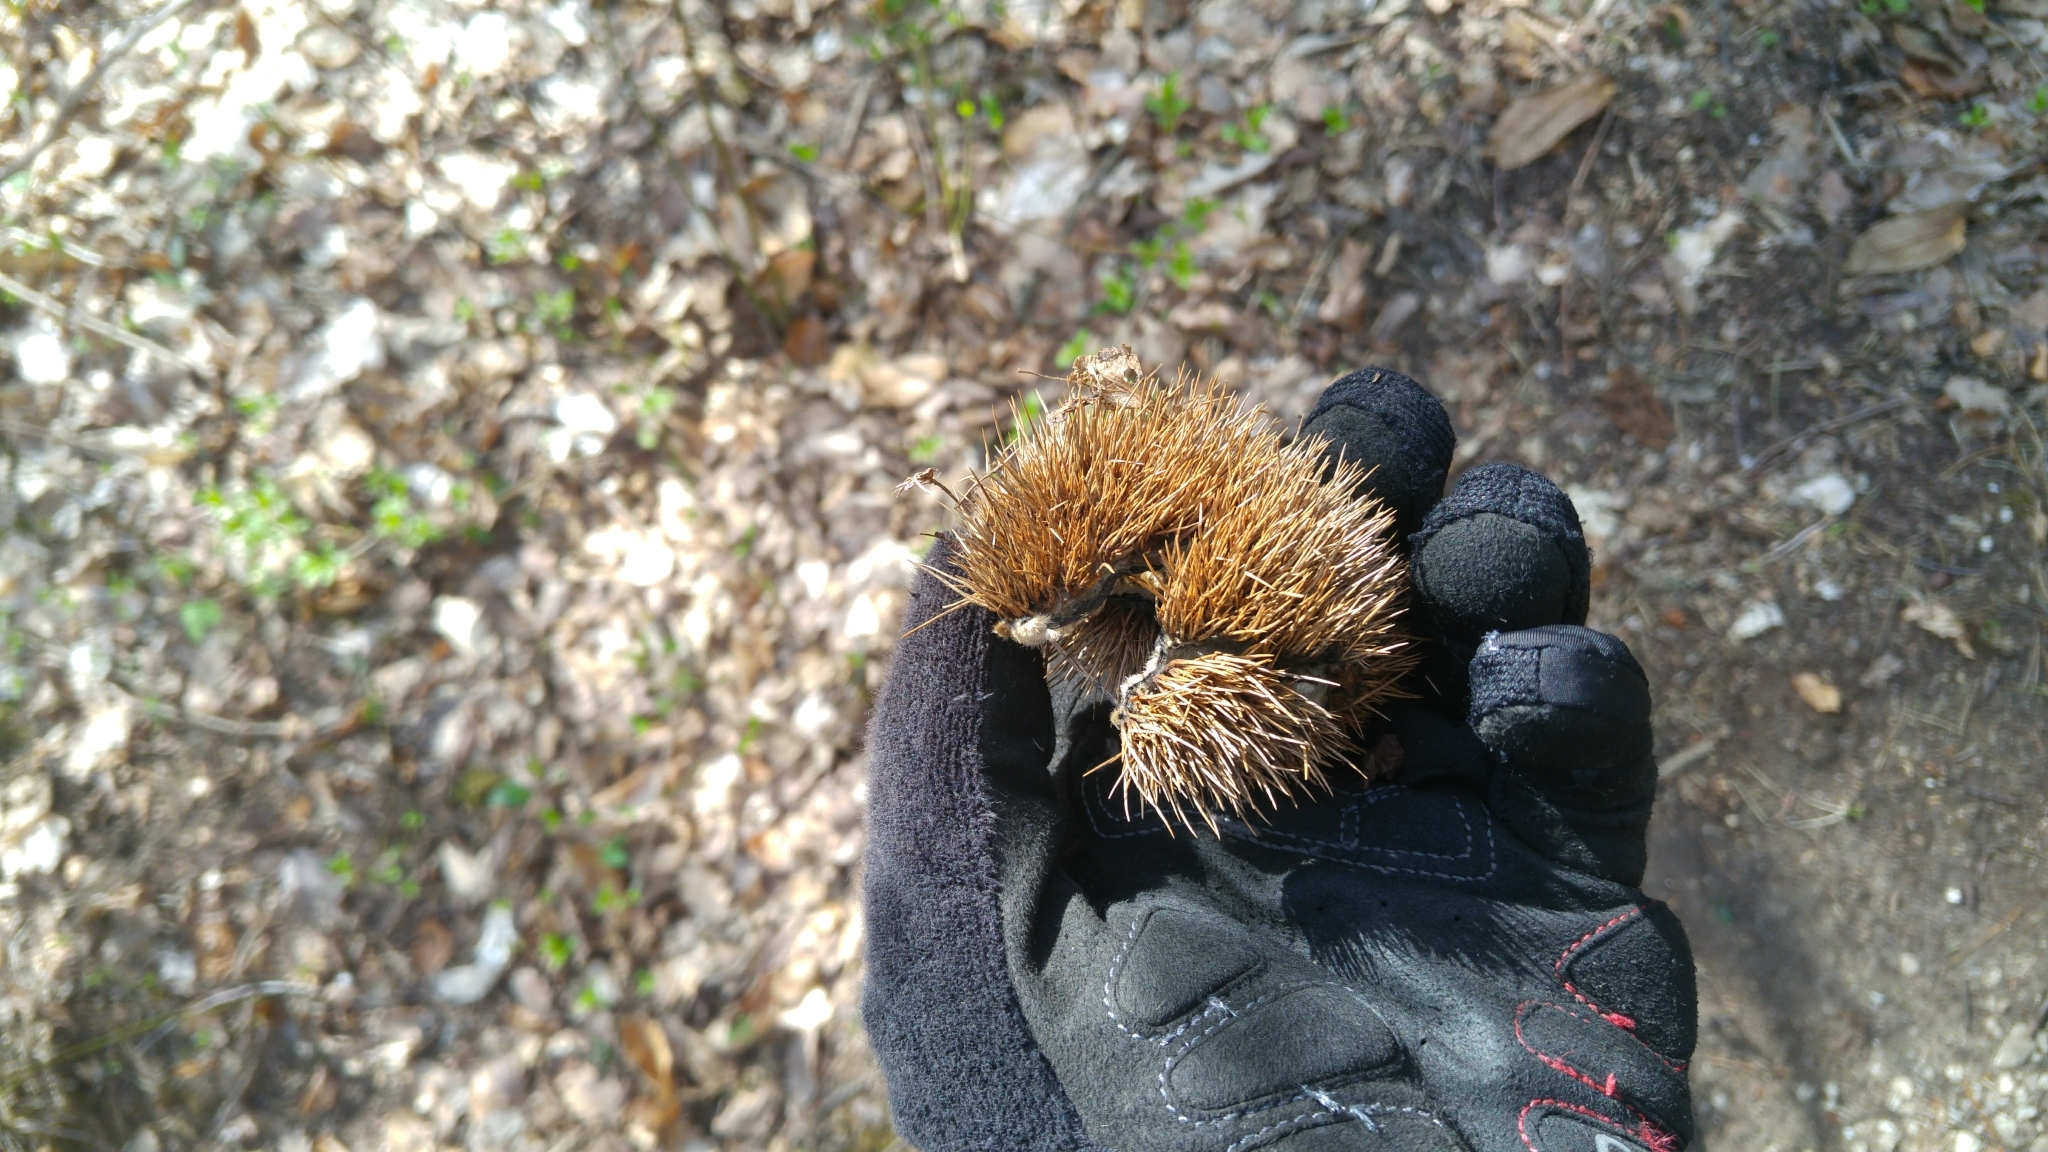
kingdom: Plantae
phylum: Tracheophyta
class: Magnoliopsida
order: Fagales
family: Fagaceae
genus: Castanea
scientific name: Castanea sativa
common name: Sweet chestnut
